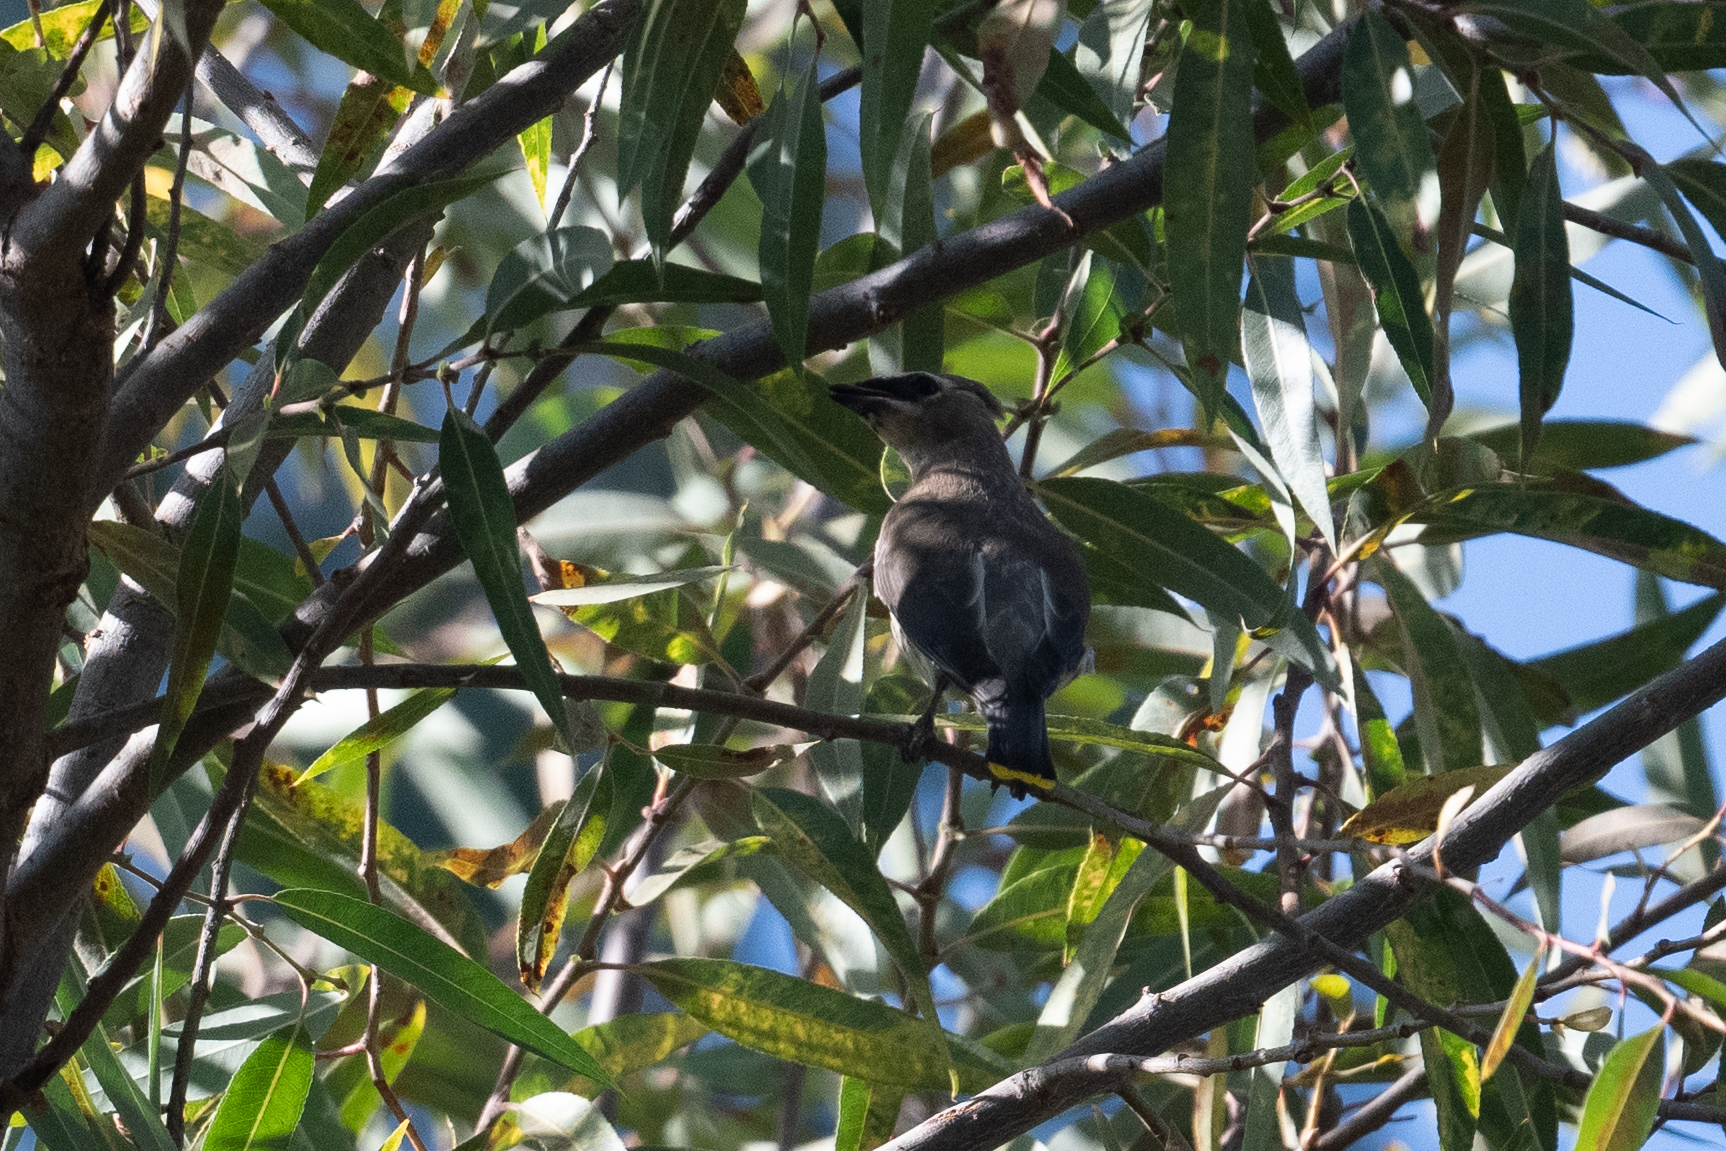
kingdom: Animalia
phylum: Chordata
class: Aves
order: Passeriformes
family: Bombycillidae
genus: Bombycilla
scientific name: Bombycilla cedrorum
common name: Cedar waxwing
